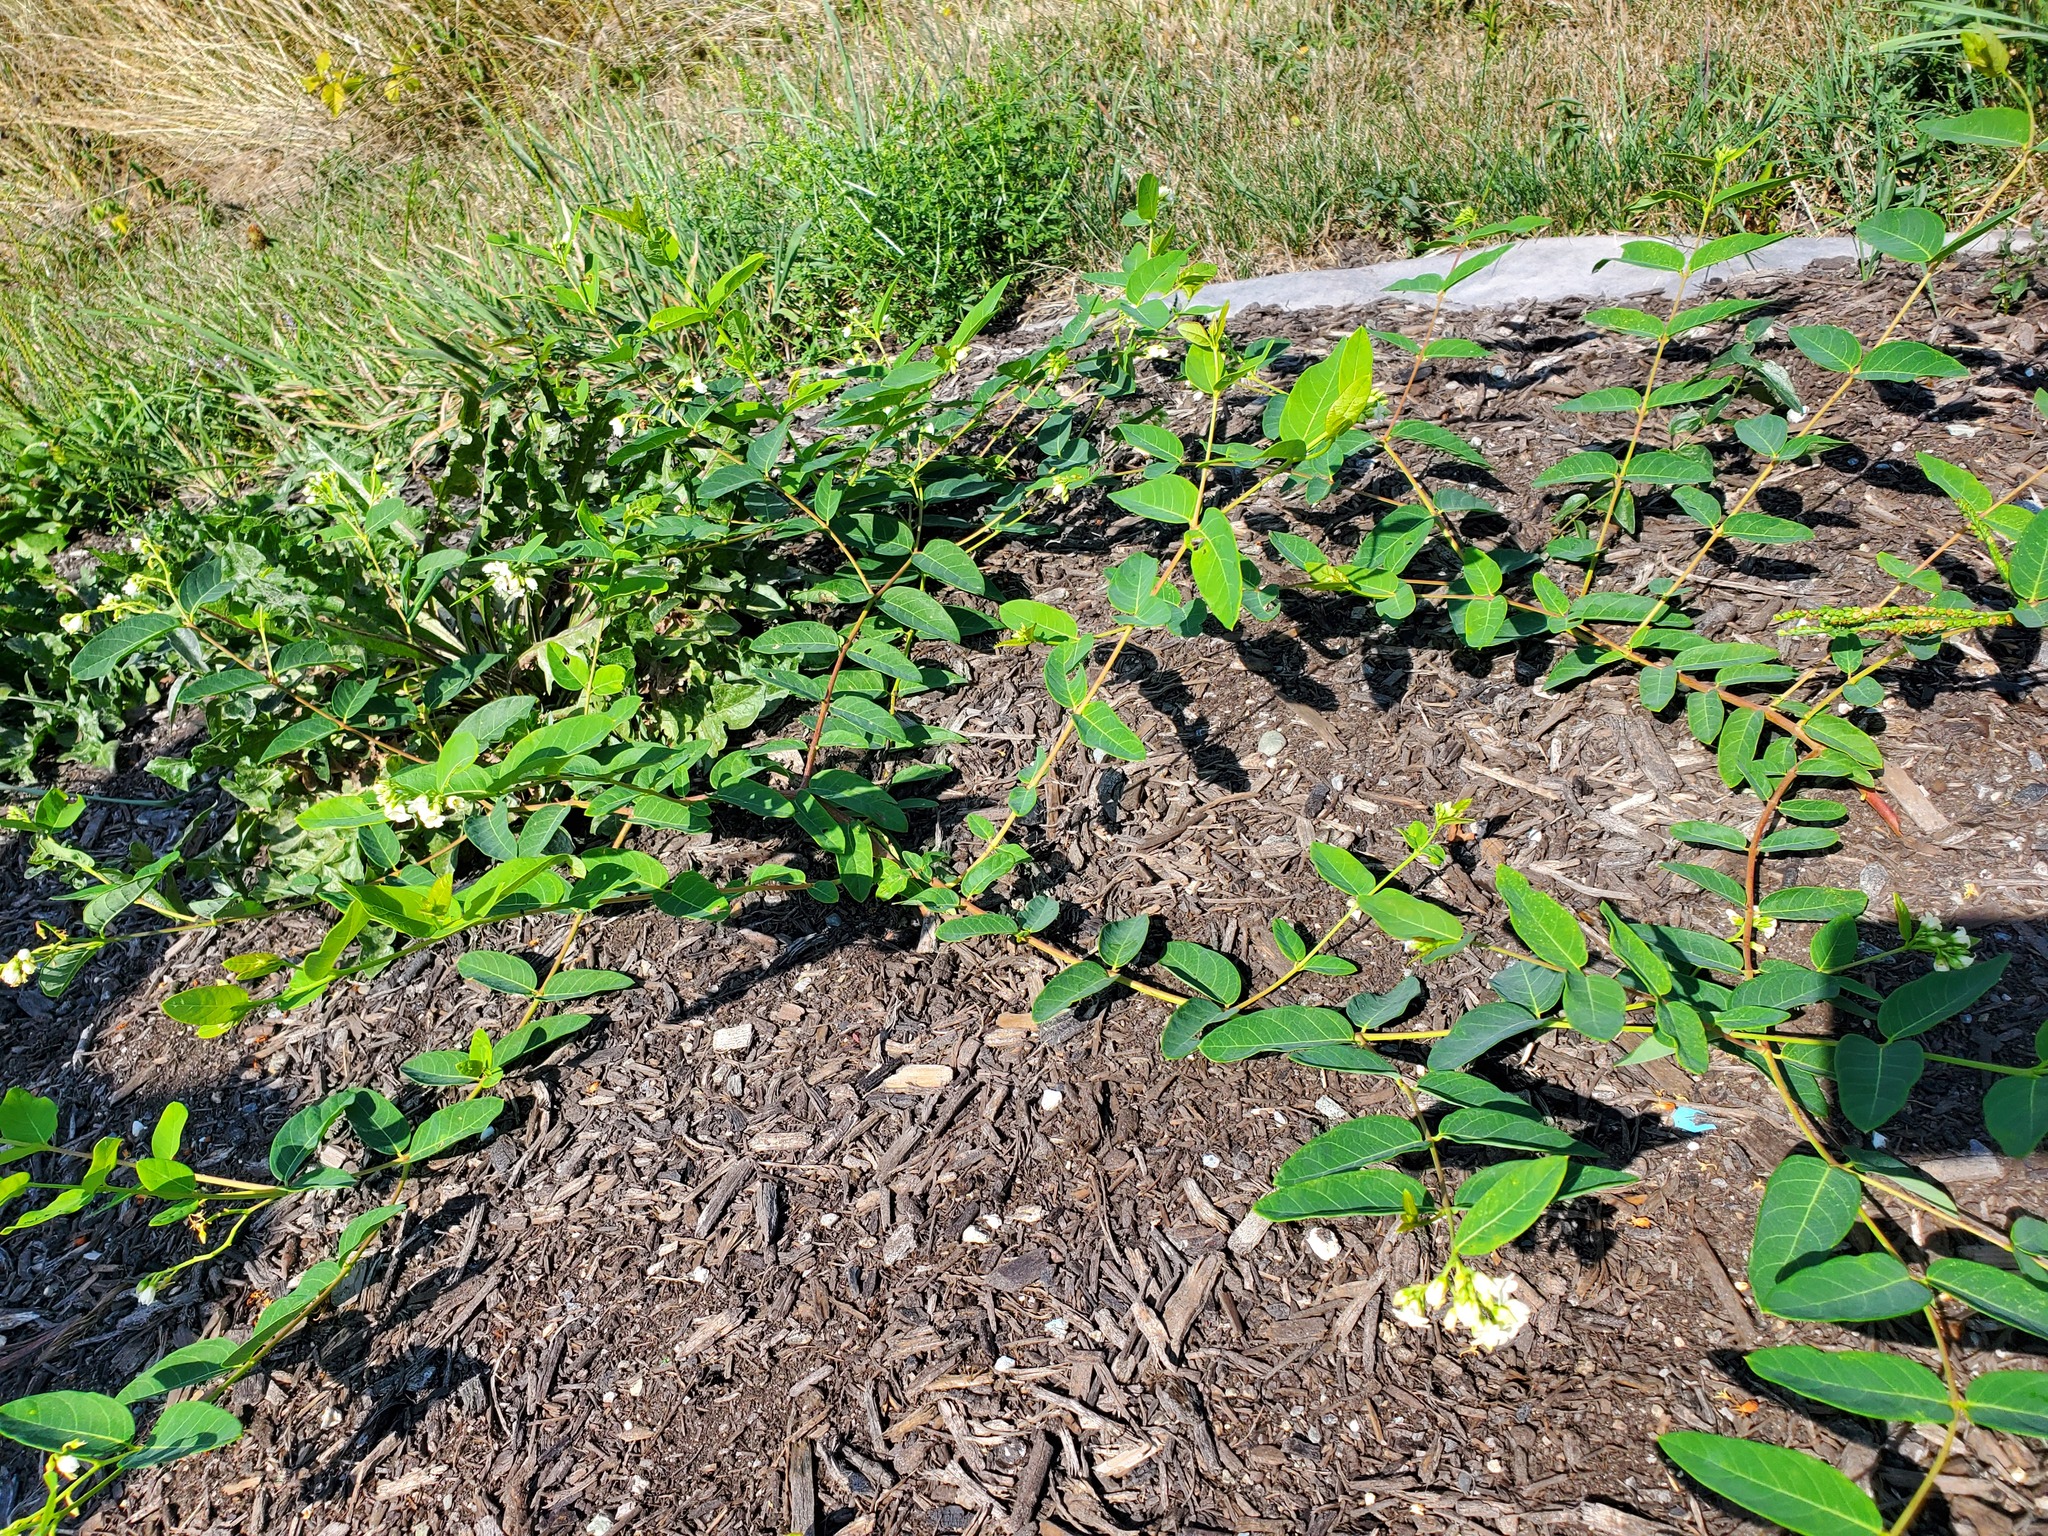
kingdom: Plantae
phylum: Tracheophyta
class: Magnoliopsida
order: Gentianales
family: Apocynaceae
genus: Apocynum
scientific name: Apocynum androsaemifolium
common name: Spreading dogbane
